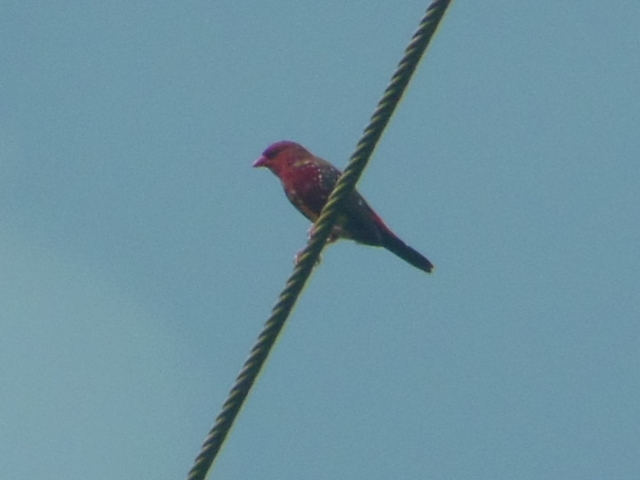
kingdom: Animalia
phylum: Chordata
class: Aves
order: Passeriformes
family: Estrildidae
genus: Amandava
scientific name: Amandava amandava
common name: Red avadavat
